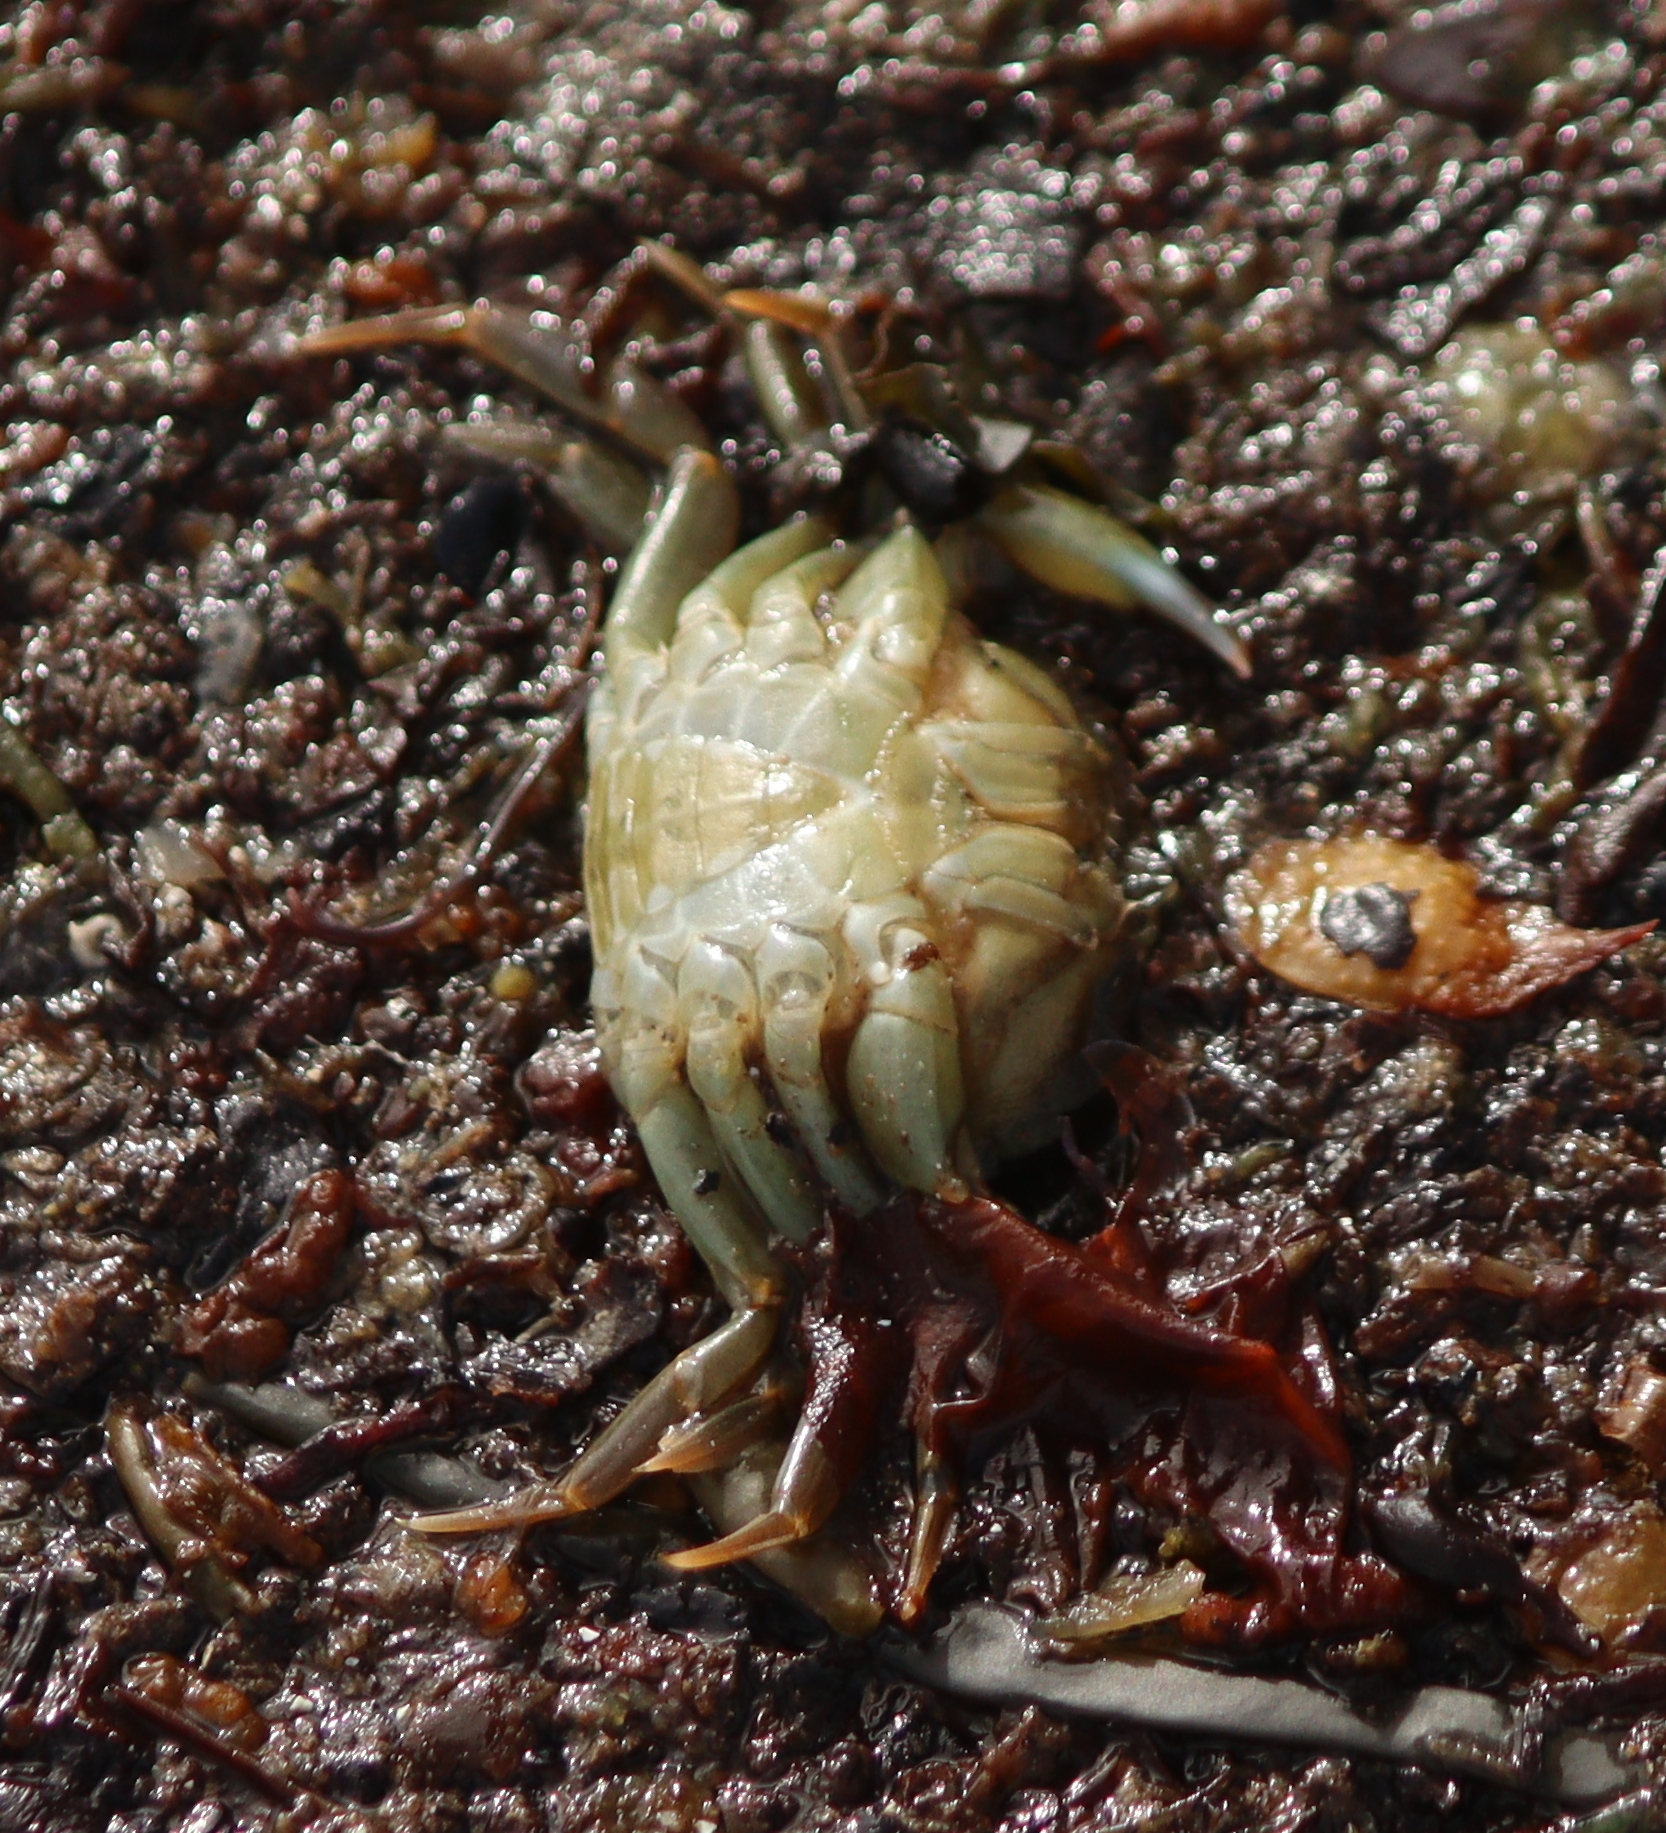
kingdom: Animalia
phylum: Arthropoda
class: Malacostraca
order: Decapoda
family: Carcinidae
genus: Carcinus
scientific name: Carcinus maenas
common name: European green crab
